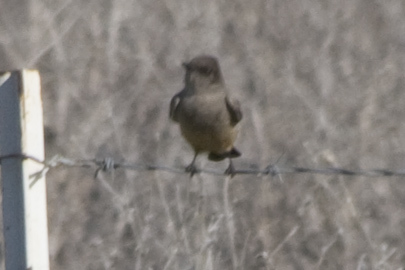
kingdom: Animalia
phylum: Chordata
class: Aves
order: Passeriformes
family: Tyrannidae
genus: Sayornis
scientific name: Sayornis saya
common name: Say's phoebe
